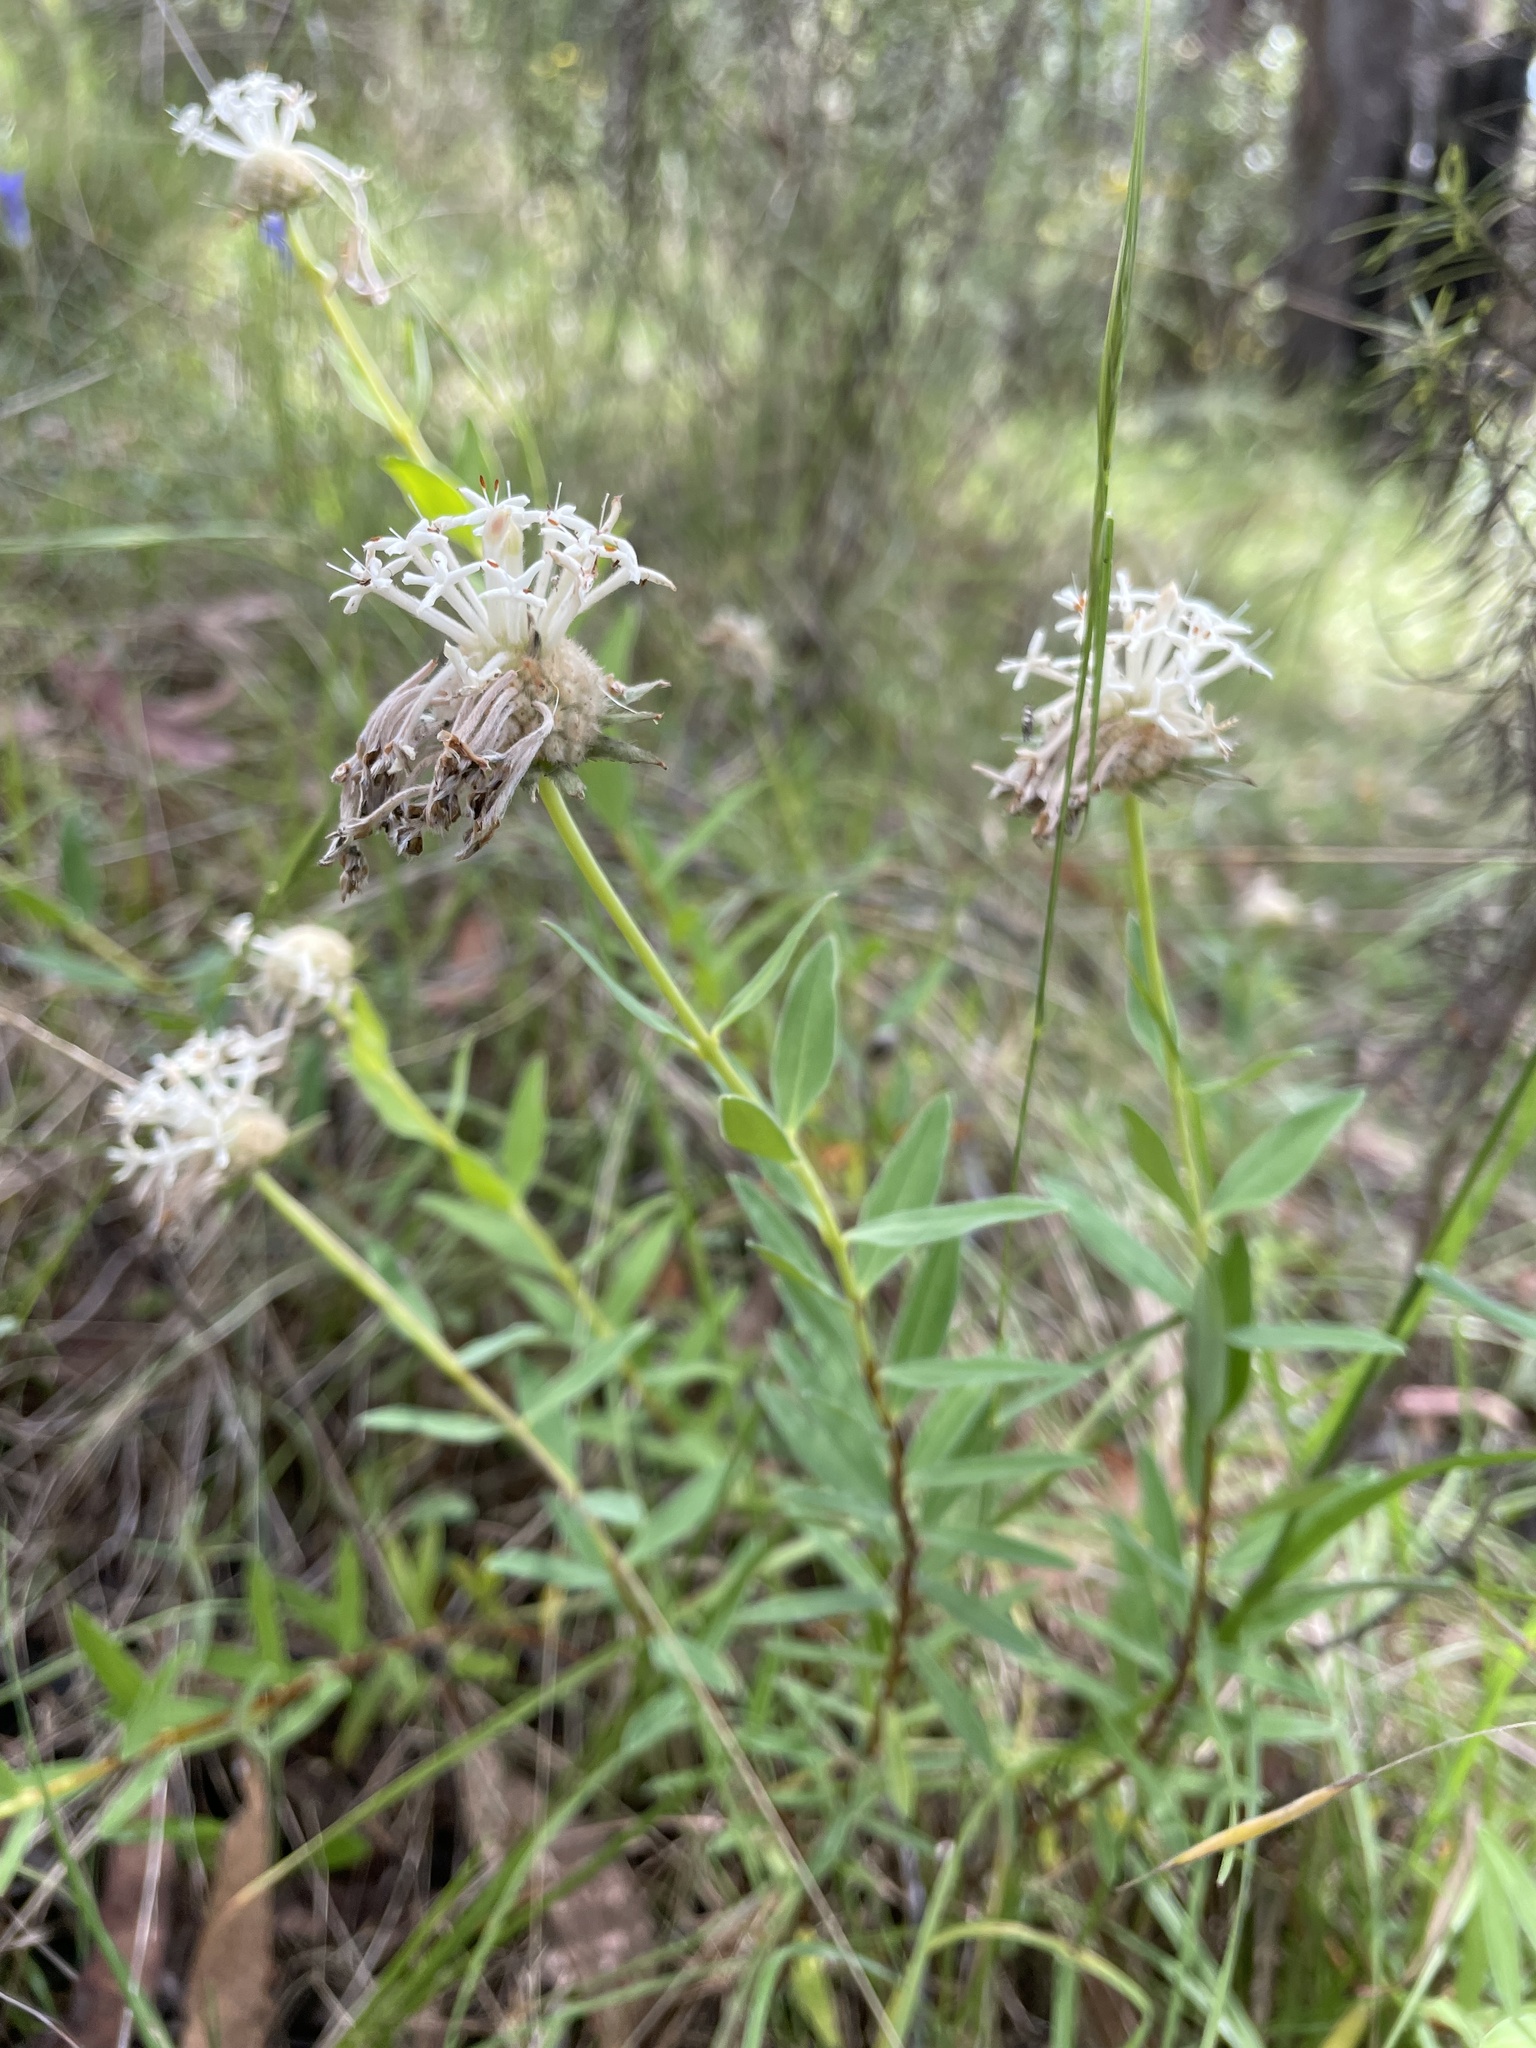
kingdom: Plantae
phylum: Tracheophyta
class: Magnoliopsida
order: Malvales
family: Thymelaeaceae
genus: Pimelea
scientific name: Pimelea linifolia
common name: Queen-of-the-bush
